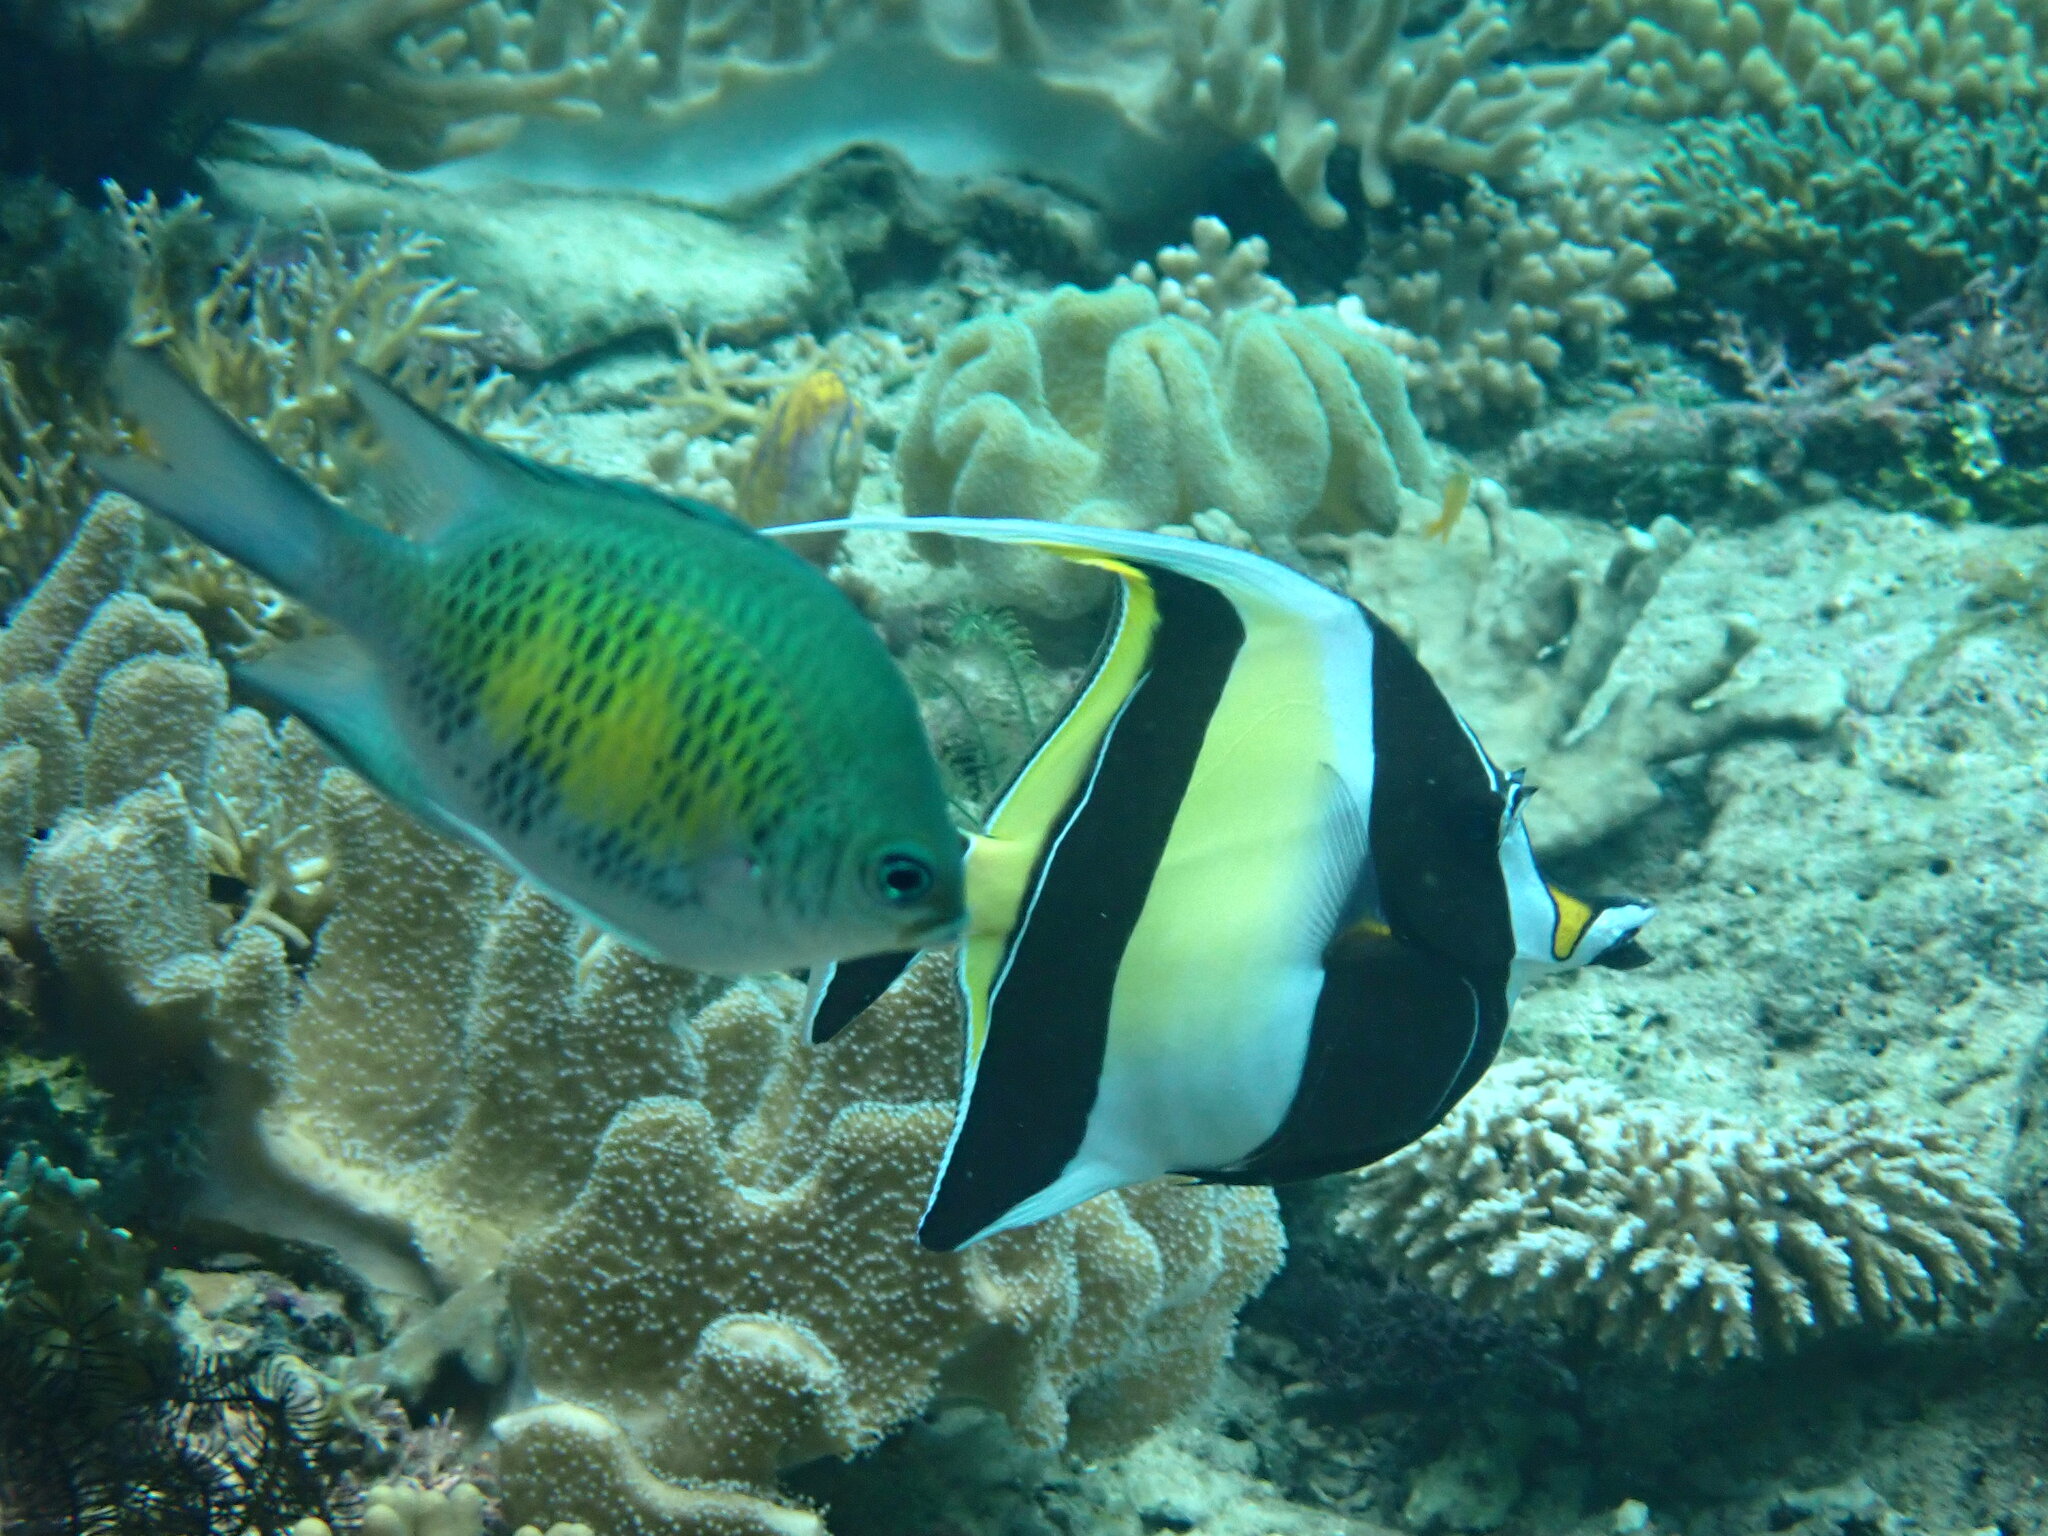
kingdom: Animalia
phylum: Chordata
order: Perciformes
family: Zanclidae
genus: Zanclus
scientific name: Zanclus cornutus
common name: Moorish idol
